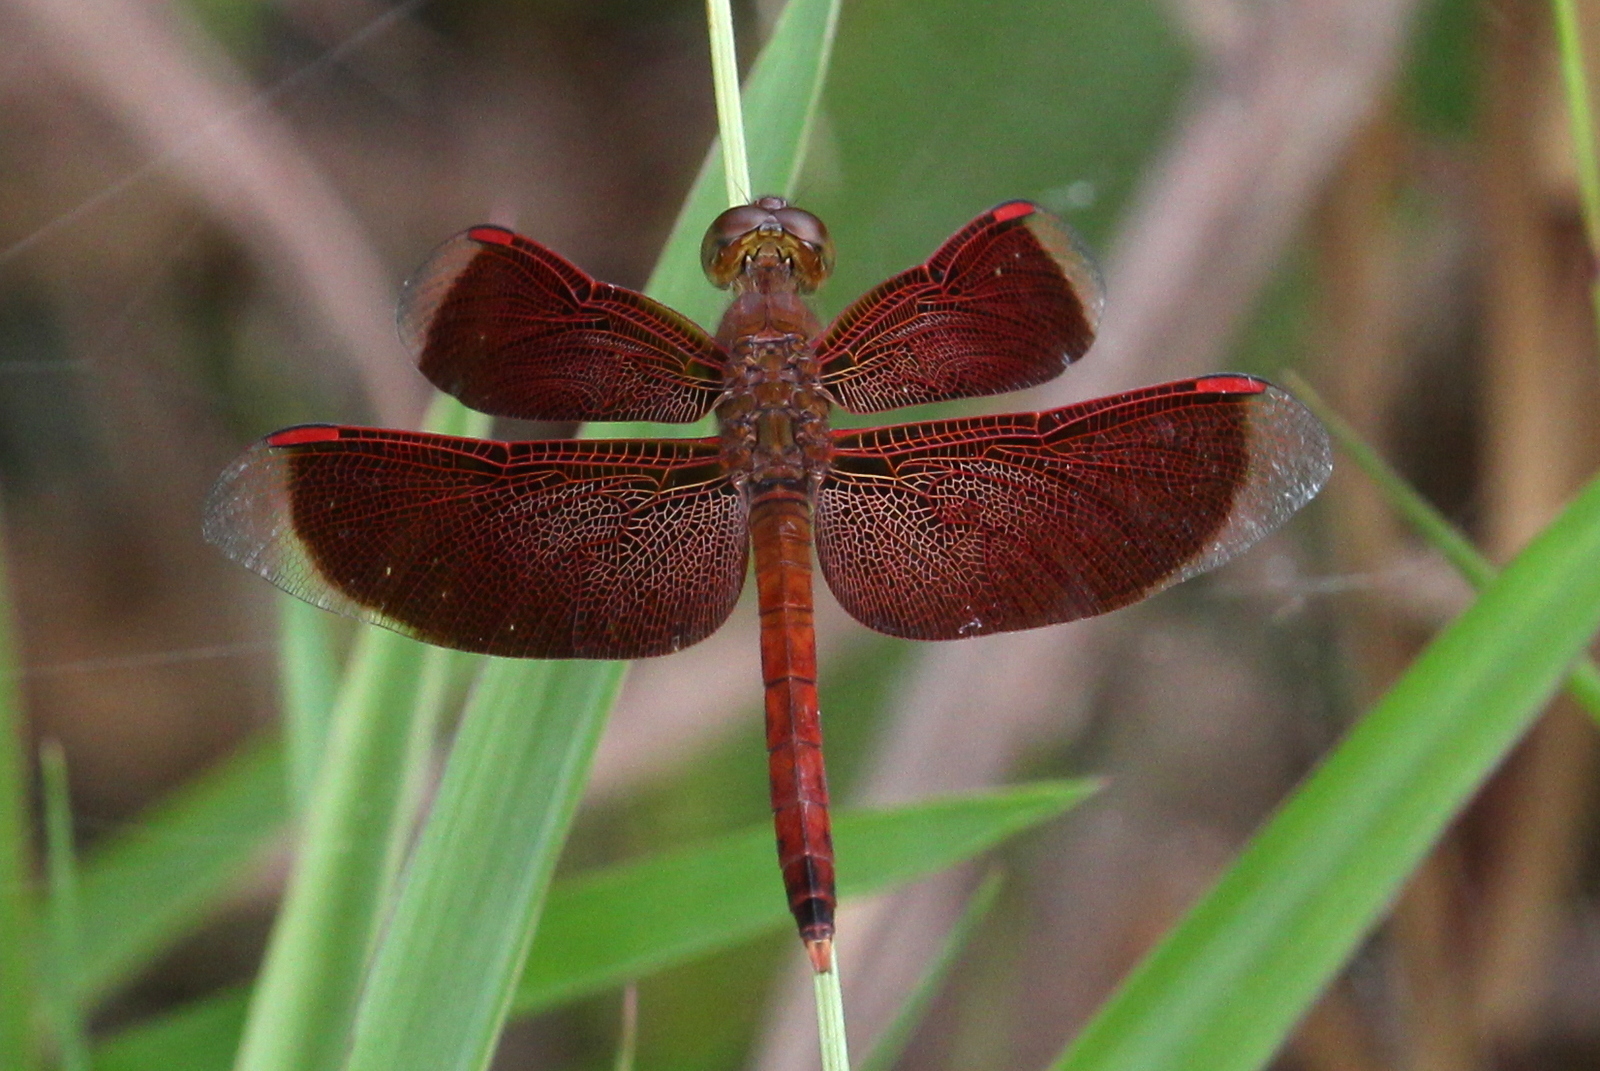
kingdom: Animalia
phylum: Arthropoda
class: Insecta
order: Odonata
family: Libellulidae
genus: Neurothemis
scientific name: Neurothemis fluctuans
